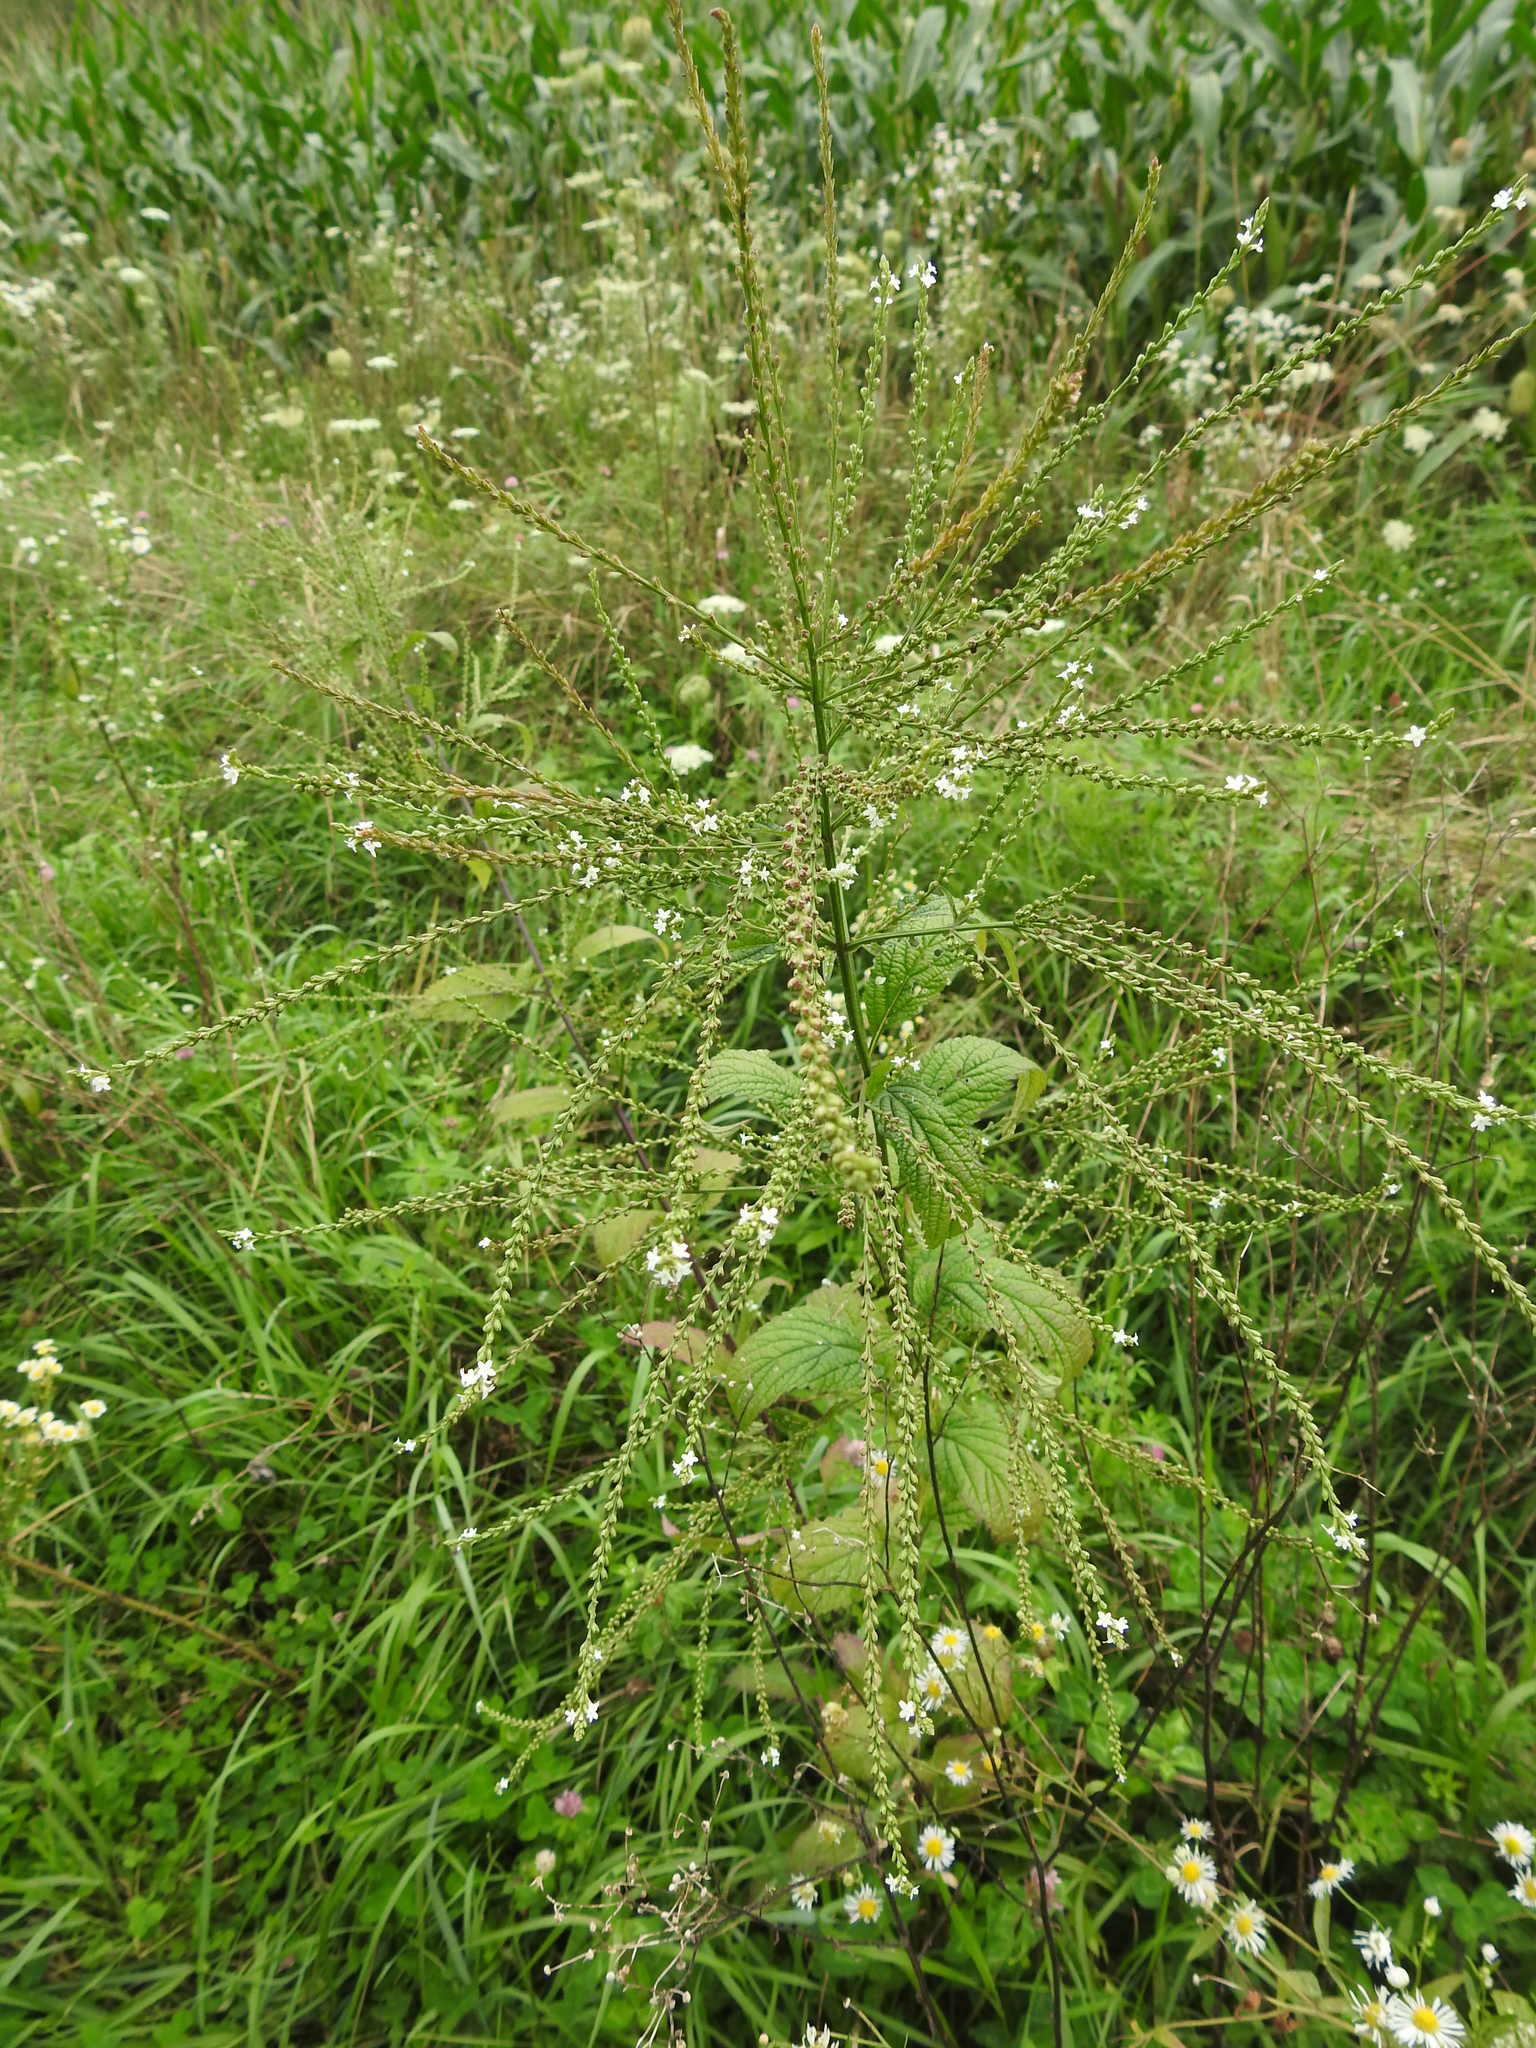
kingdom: Plantae
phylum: Tracheophyta
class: Magnoliopsida
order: Lamiales
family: Verbenaceae
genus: Verbena
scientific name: Verbena urticifolia
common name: Nettle-leaved vervain
